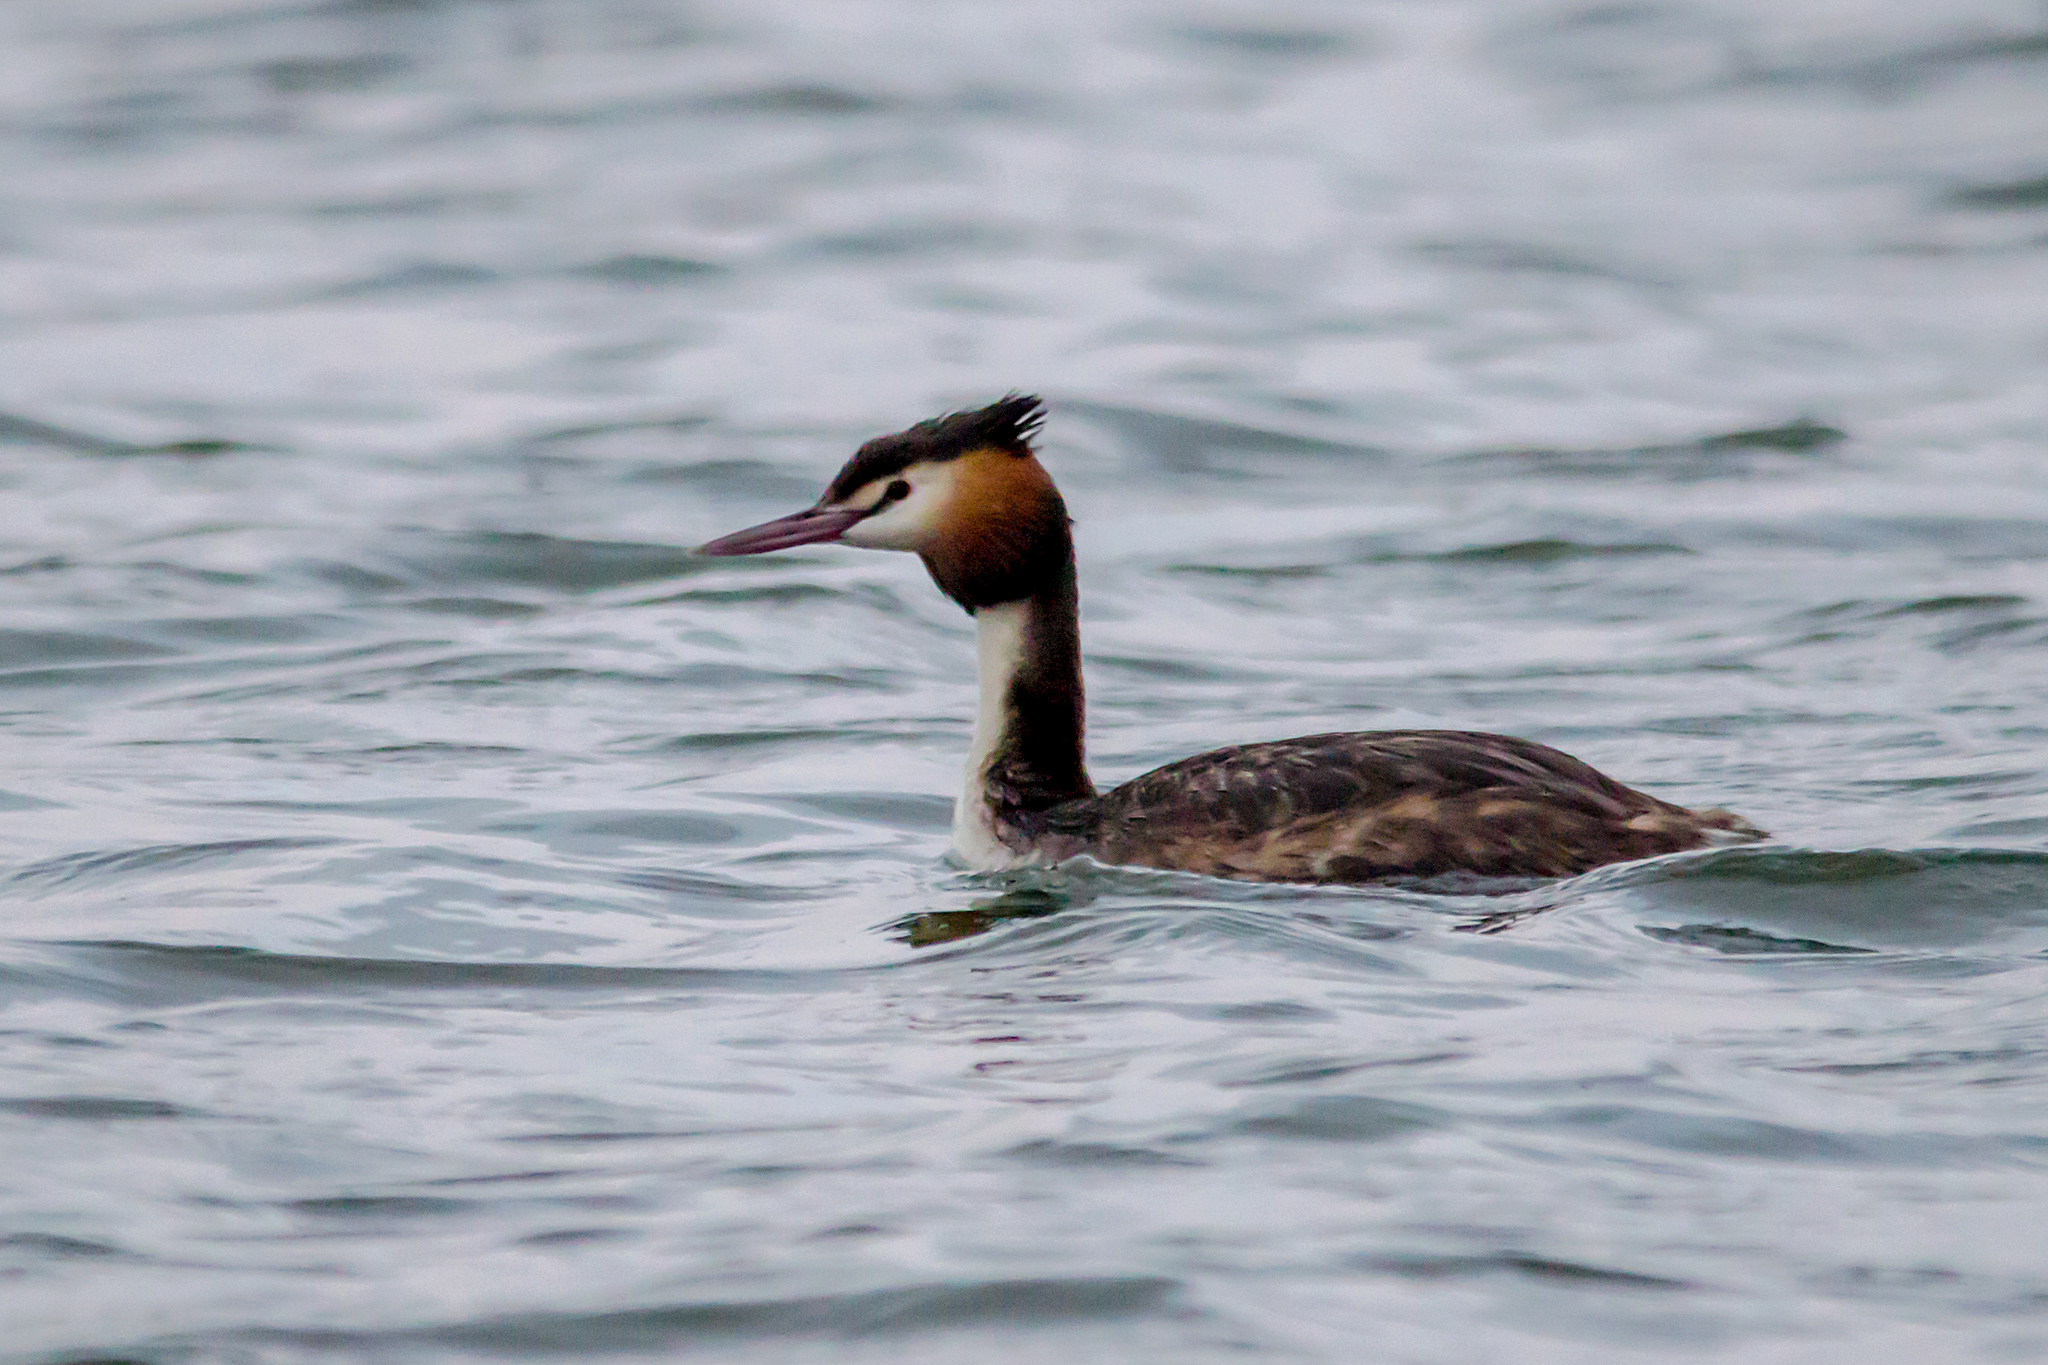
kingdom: Animalia
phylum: Chordata
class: Aves
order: Podicipediformes
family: Podicipedidae
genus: Podiceps
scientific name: Podiceps cristatus
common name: Great crested grebe
